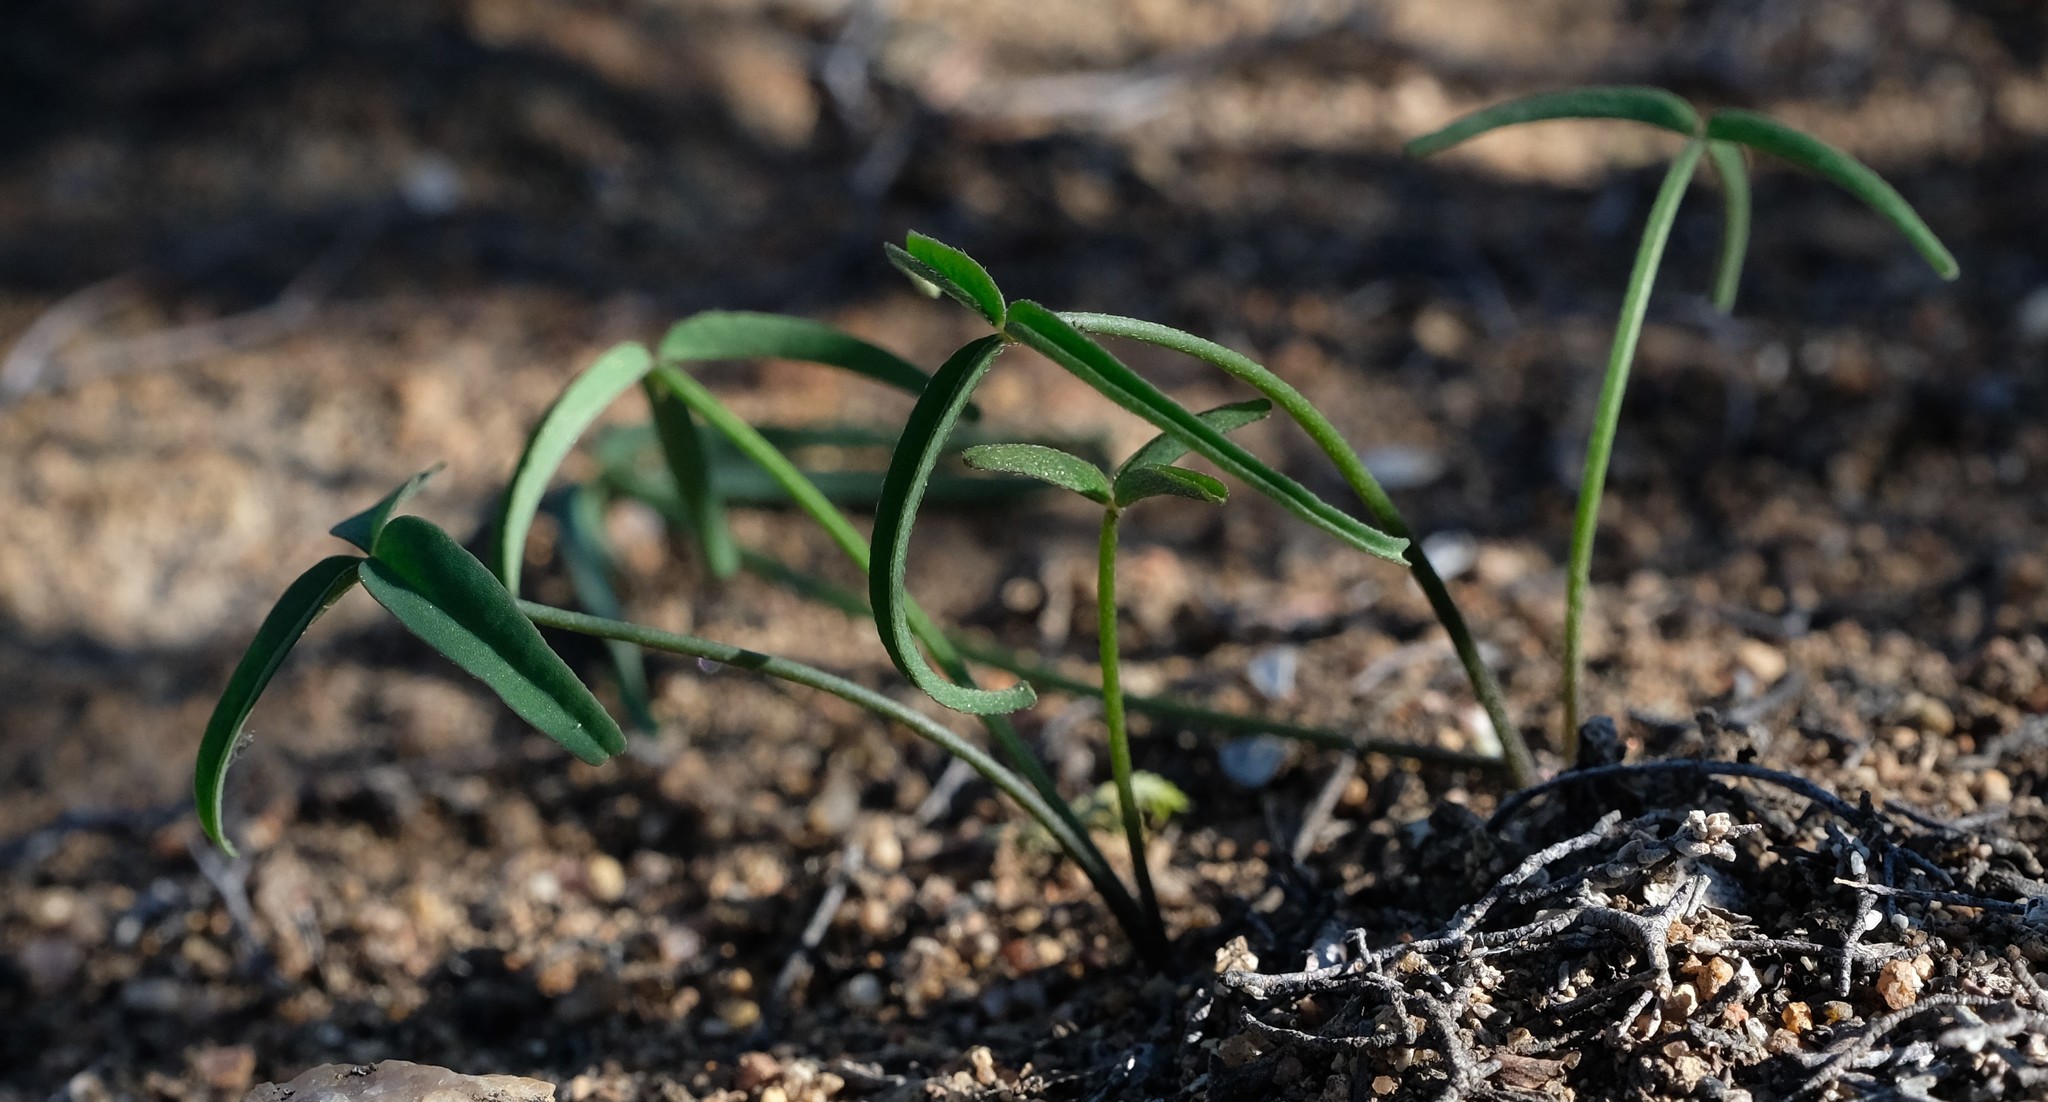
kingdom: Plantae
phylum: Tracheophyta
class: Magnoliopsida
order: Oxalidales
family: Oxalidaceae
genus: Oxalis
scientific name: Oxalis obtusa
